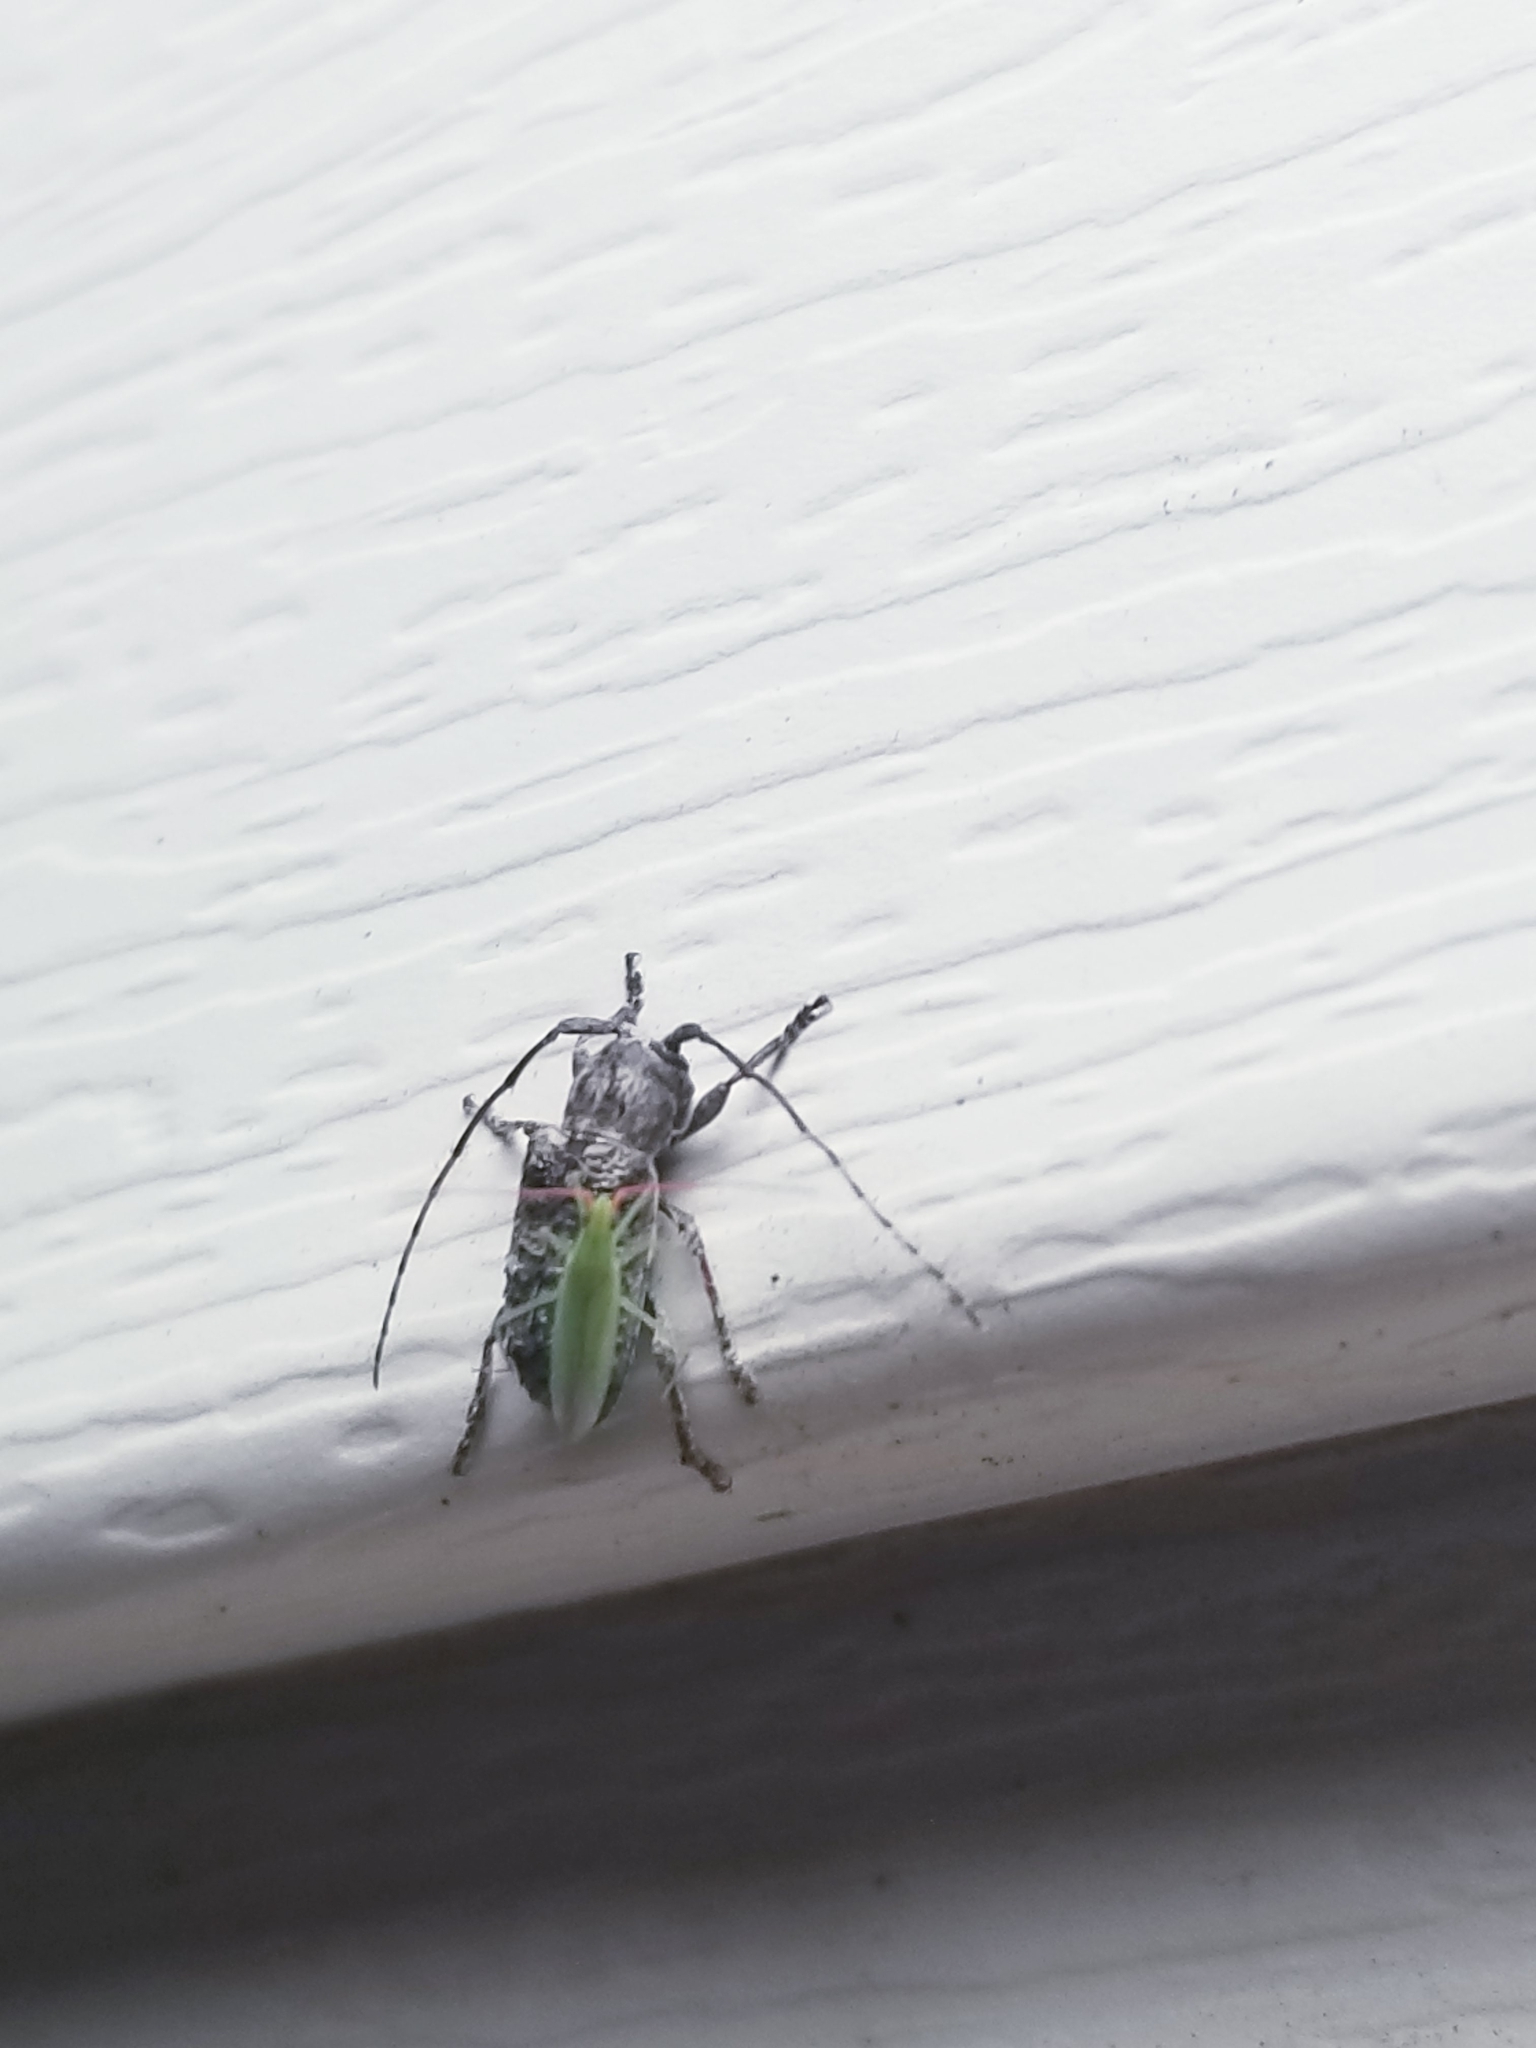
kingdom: Animalia
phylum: Arthropoda
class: Insecta
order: Coleoptera
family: Cerambycidae
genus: Ecyrus
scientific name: Ecyrus dasycerus
